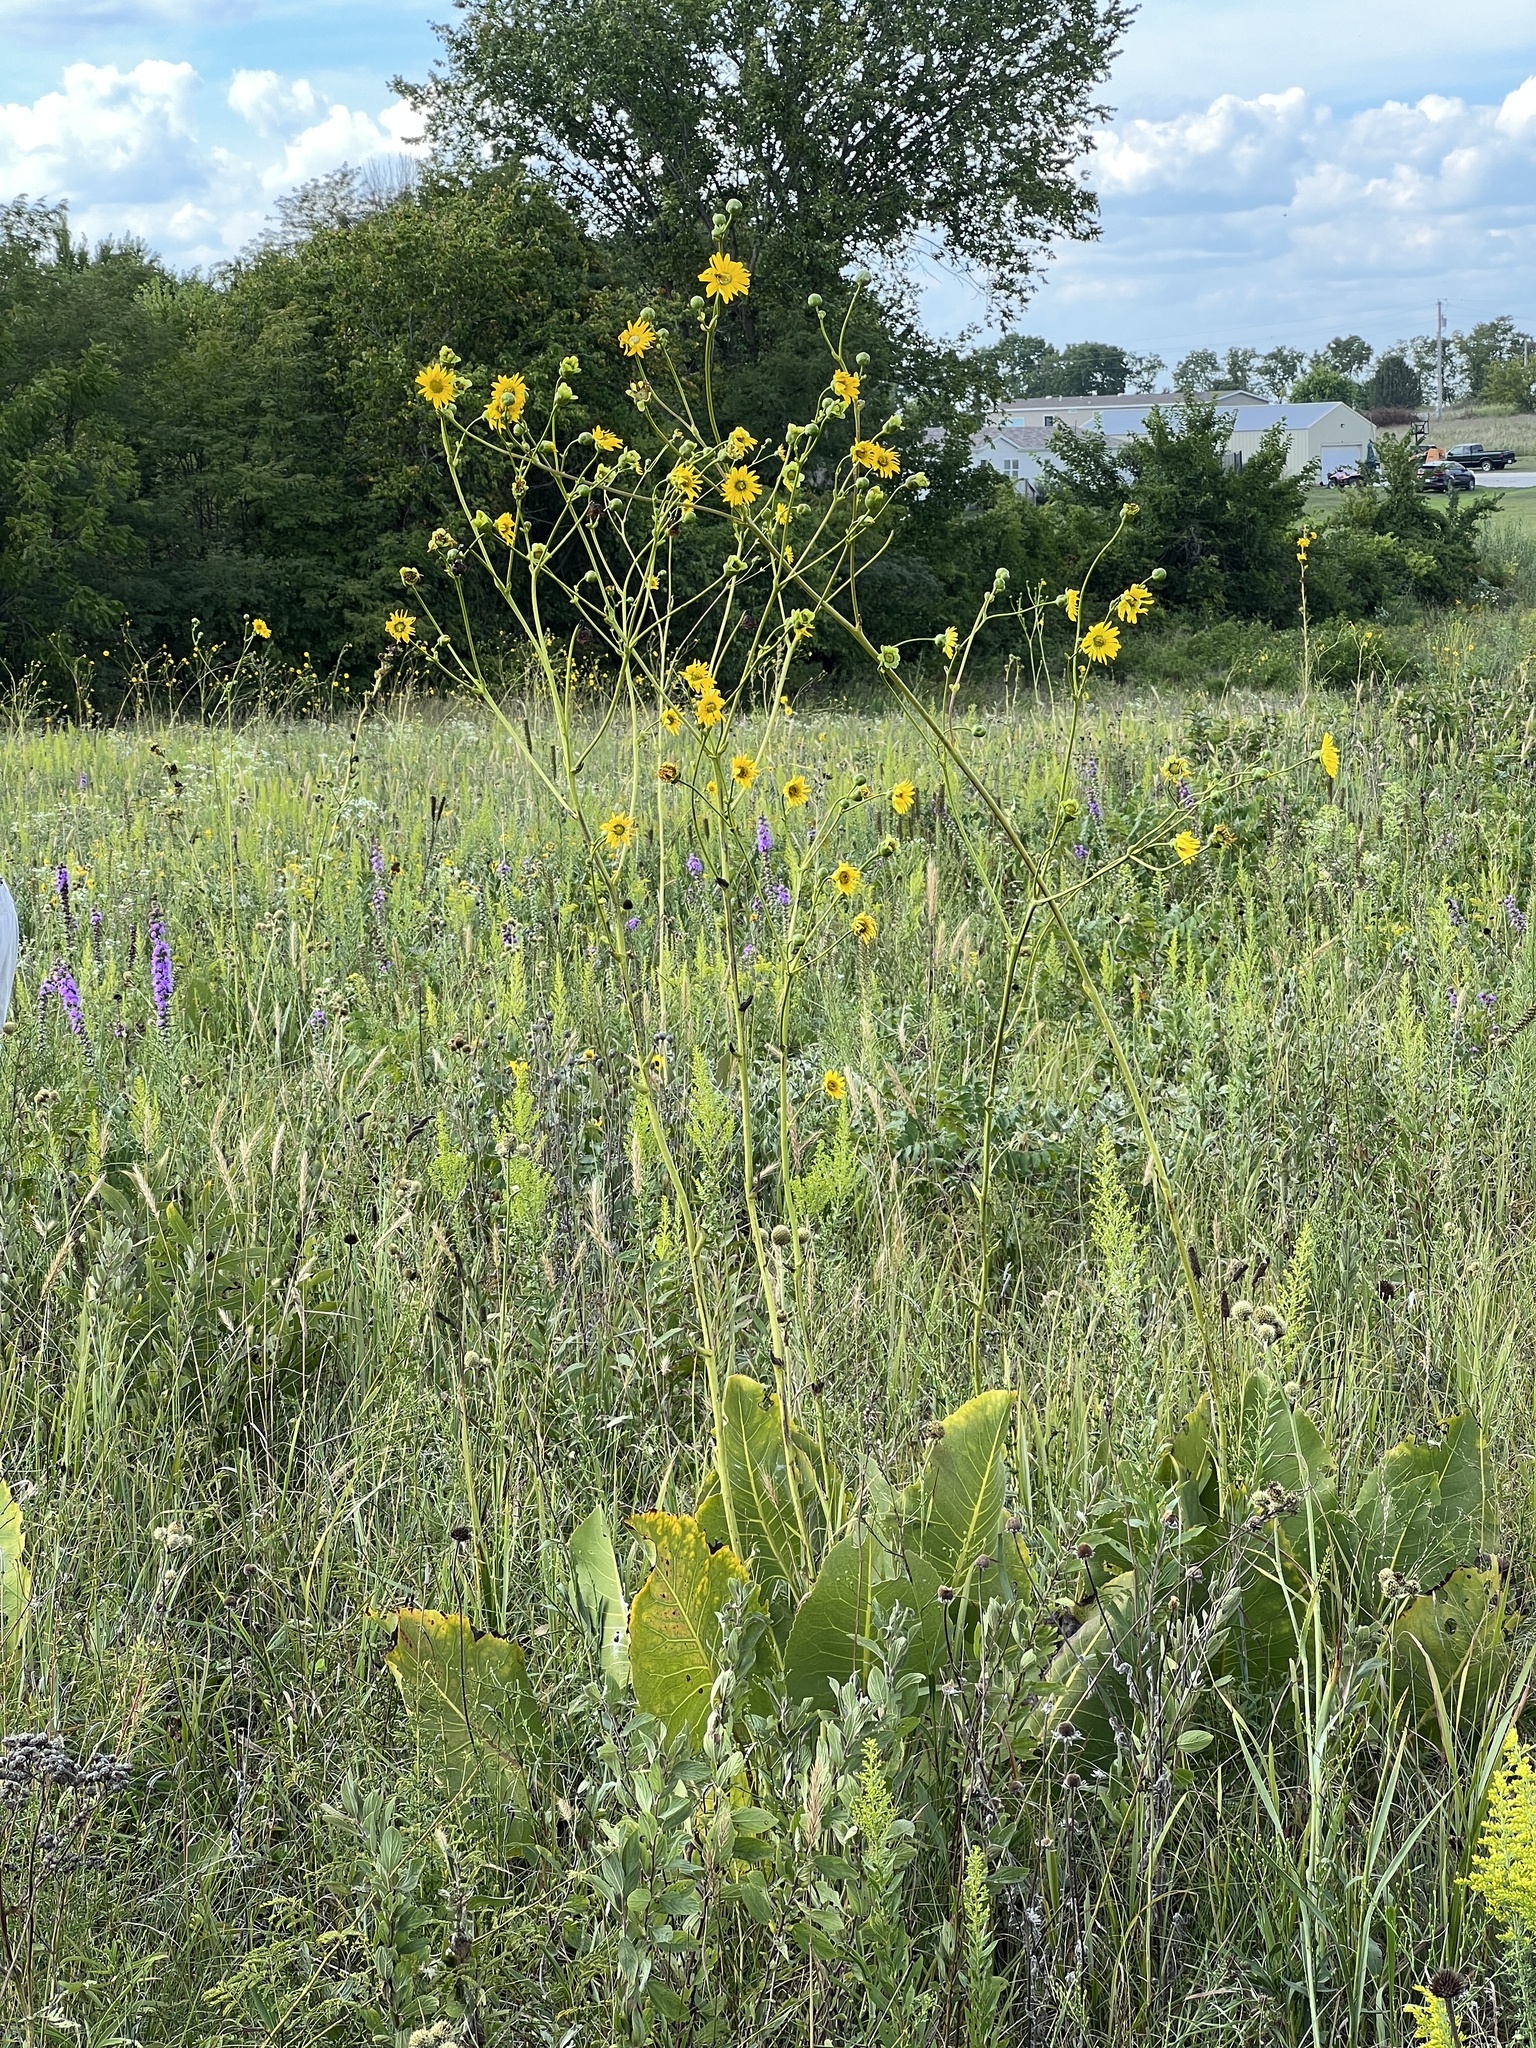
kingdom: Plantae
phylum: Tracheophyta
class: Magnoliopsida
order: Asterales
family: Asteraceae
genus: Silphium
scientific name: Silphium terebinthinaceum
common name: Basal-leaf rosinweed
